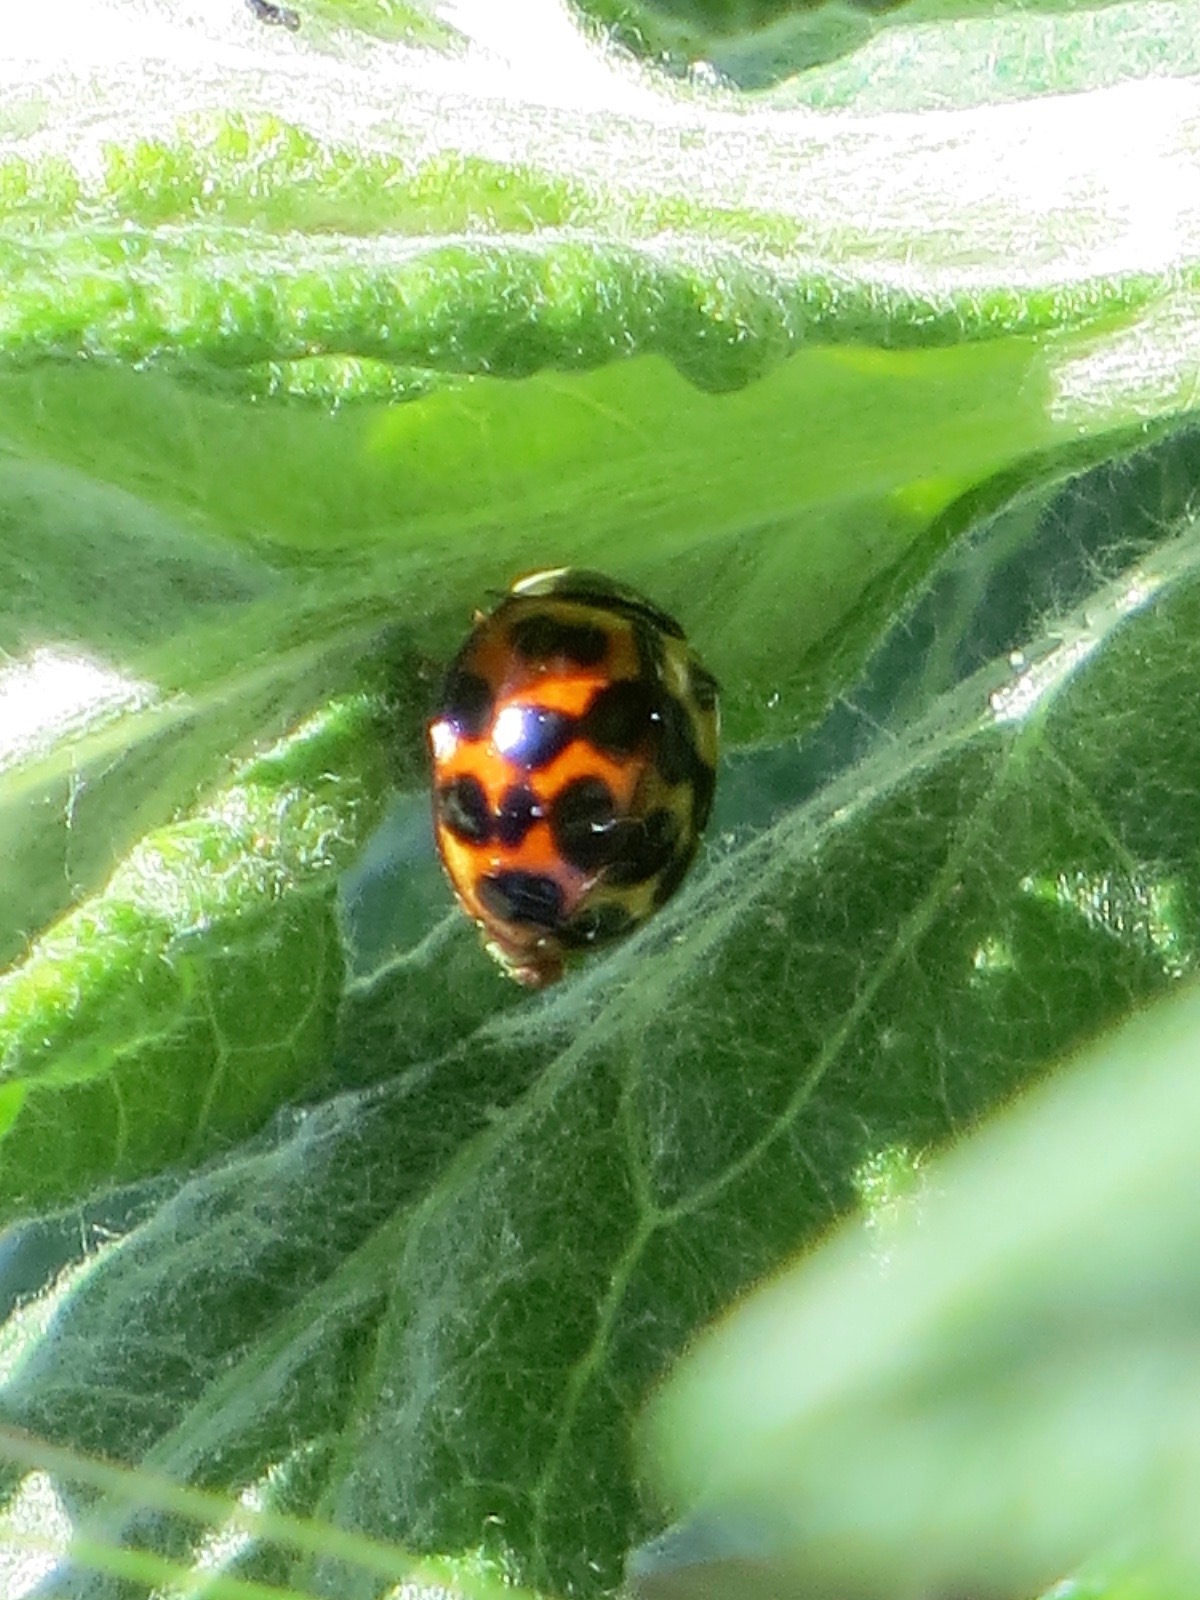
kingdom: Animalia
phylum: Arthropoda
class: Insecta
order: Coleoptera
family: Coccinellidae
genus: Harmonia
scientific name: Harmonia axyridis
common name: Harlequin ladybird
